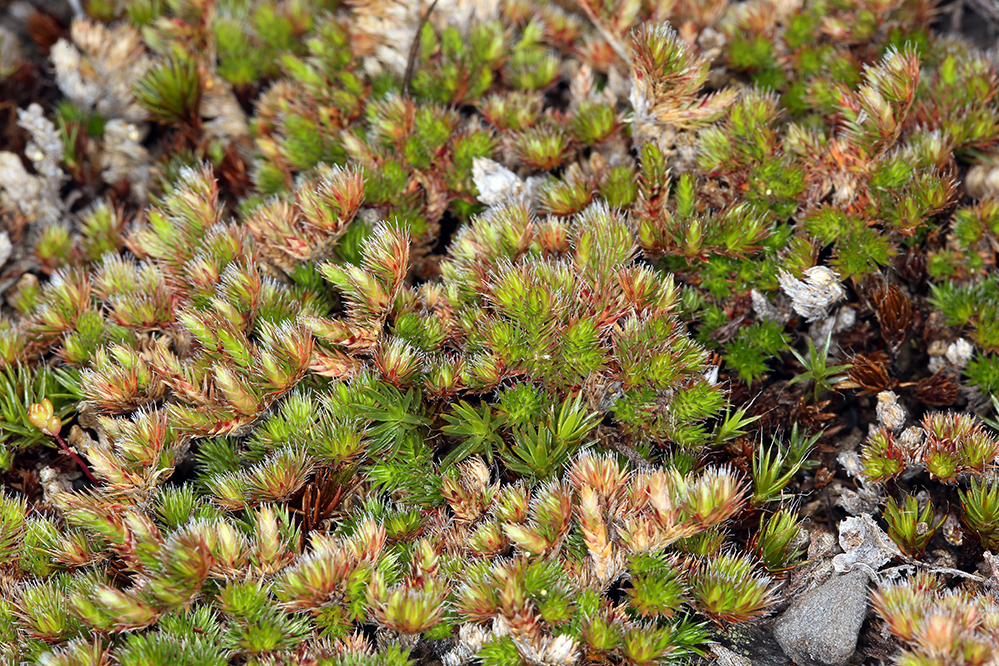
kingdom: Plantae
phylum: Tracheophyta
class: Lycopodiopsida
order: Selaginellales
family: Selaginellaceae
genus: Selaginella
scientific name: Selaginella hansenii
